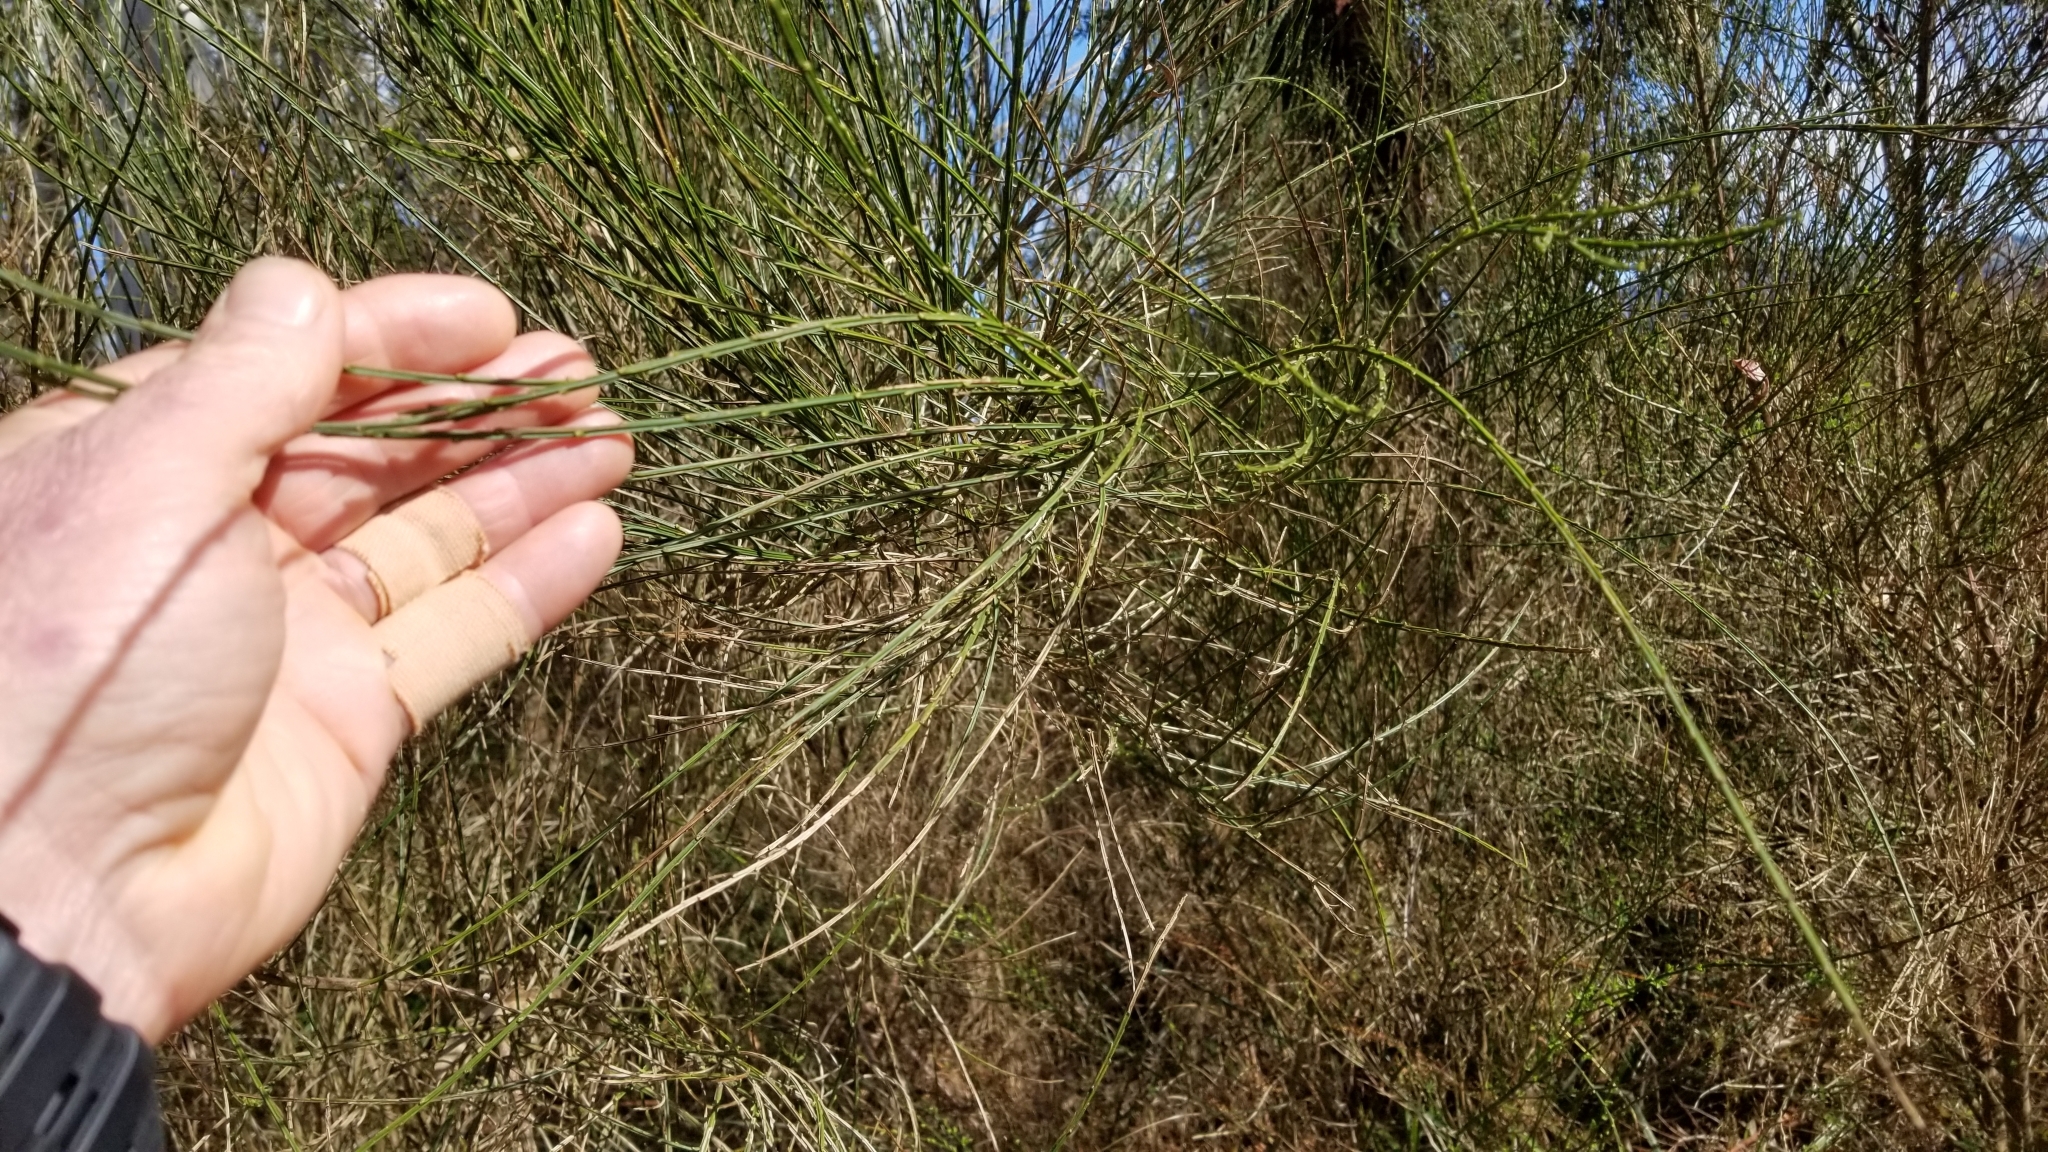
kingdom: Plantae
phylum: Tracheophyta
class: Magnoliopsida
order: Fabales
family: Fabaceae
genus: Cytisus
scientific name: Cytisus scoparius
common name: Scotch broom
